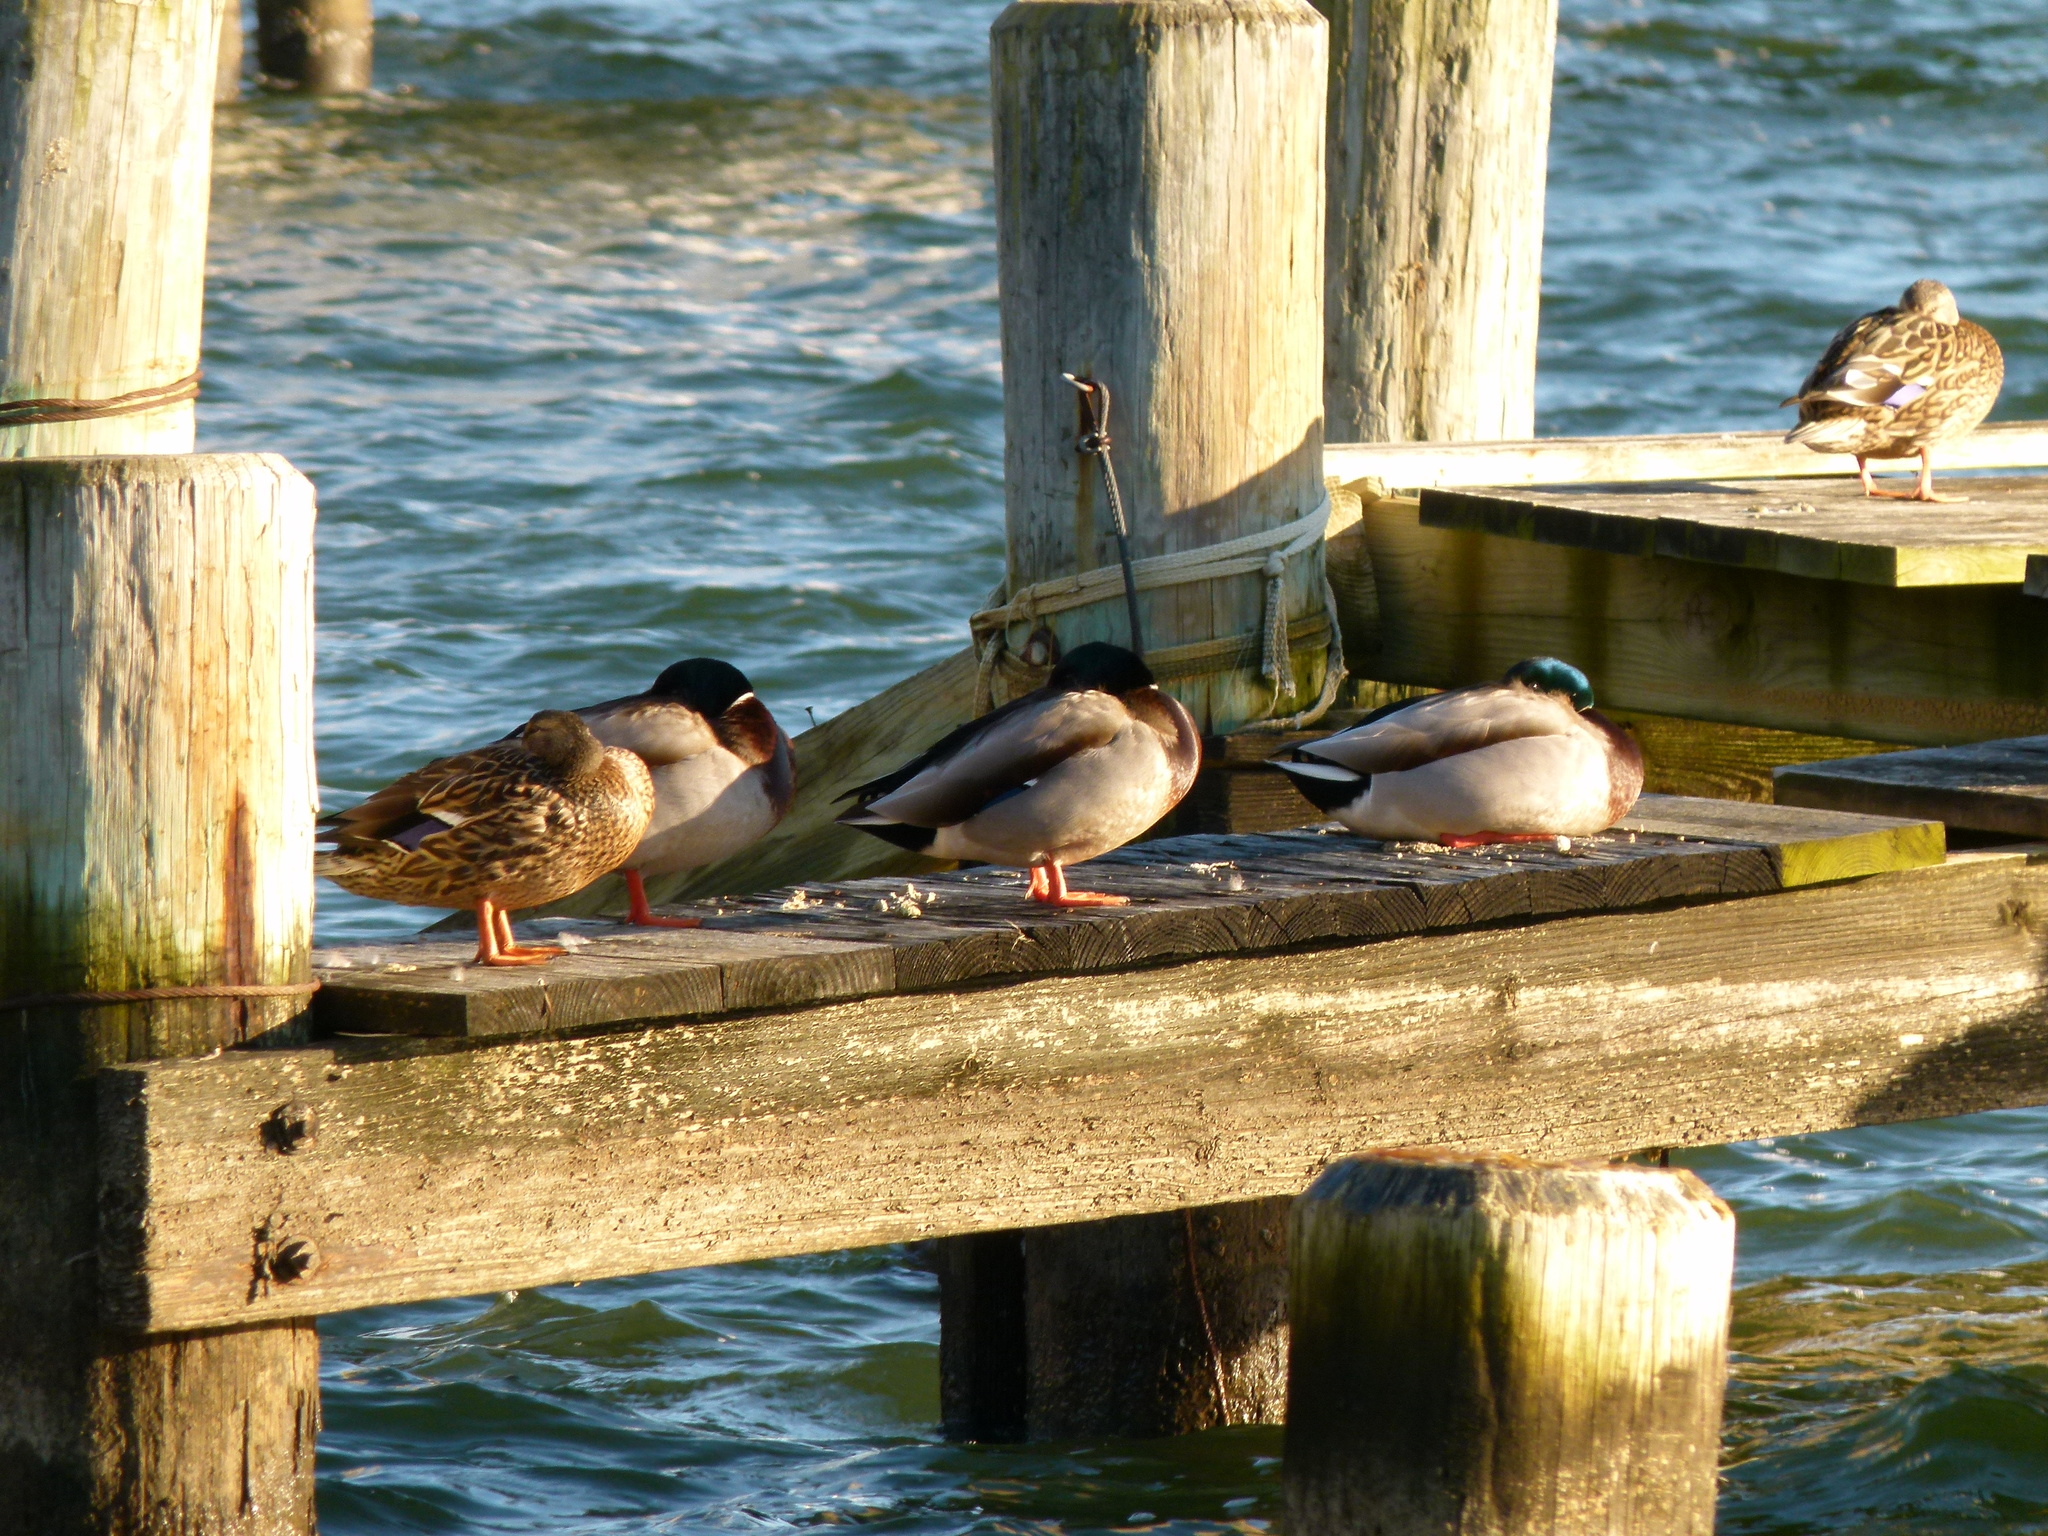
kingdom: Animalia
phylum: Chordata
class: Aves
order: Anseriformes
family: Anatidae
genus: Anas
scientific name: Anas platyrhynchos
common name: Mallard
